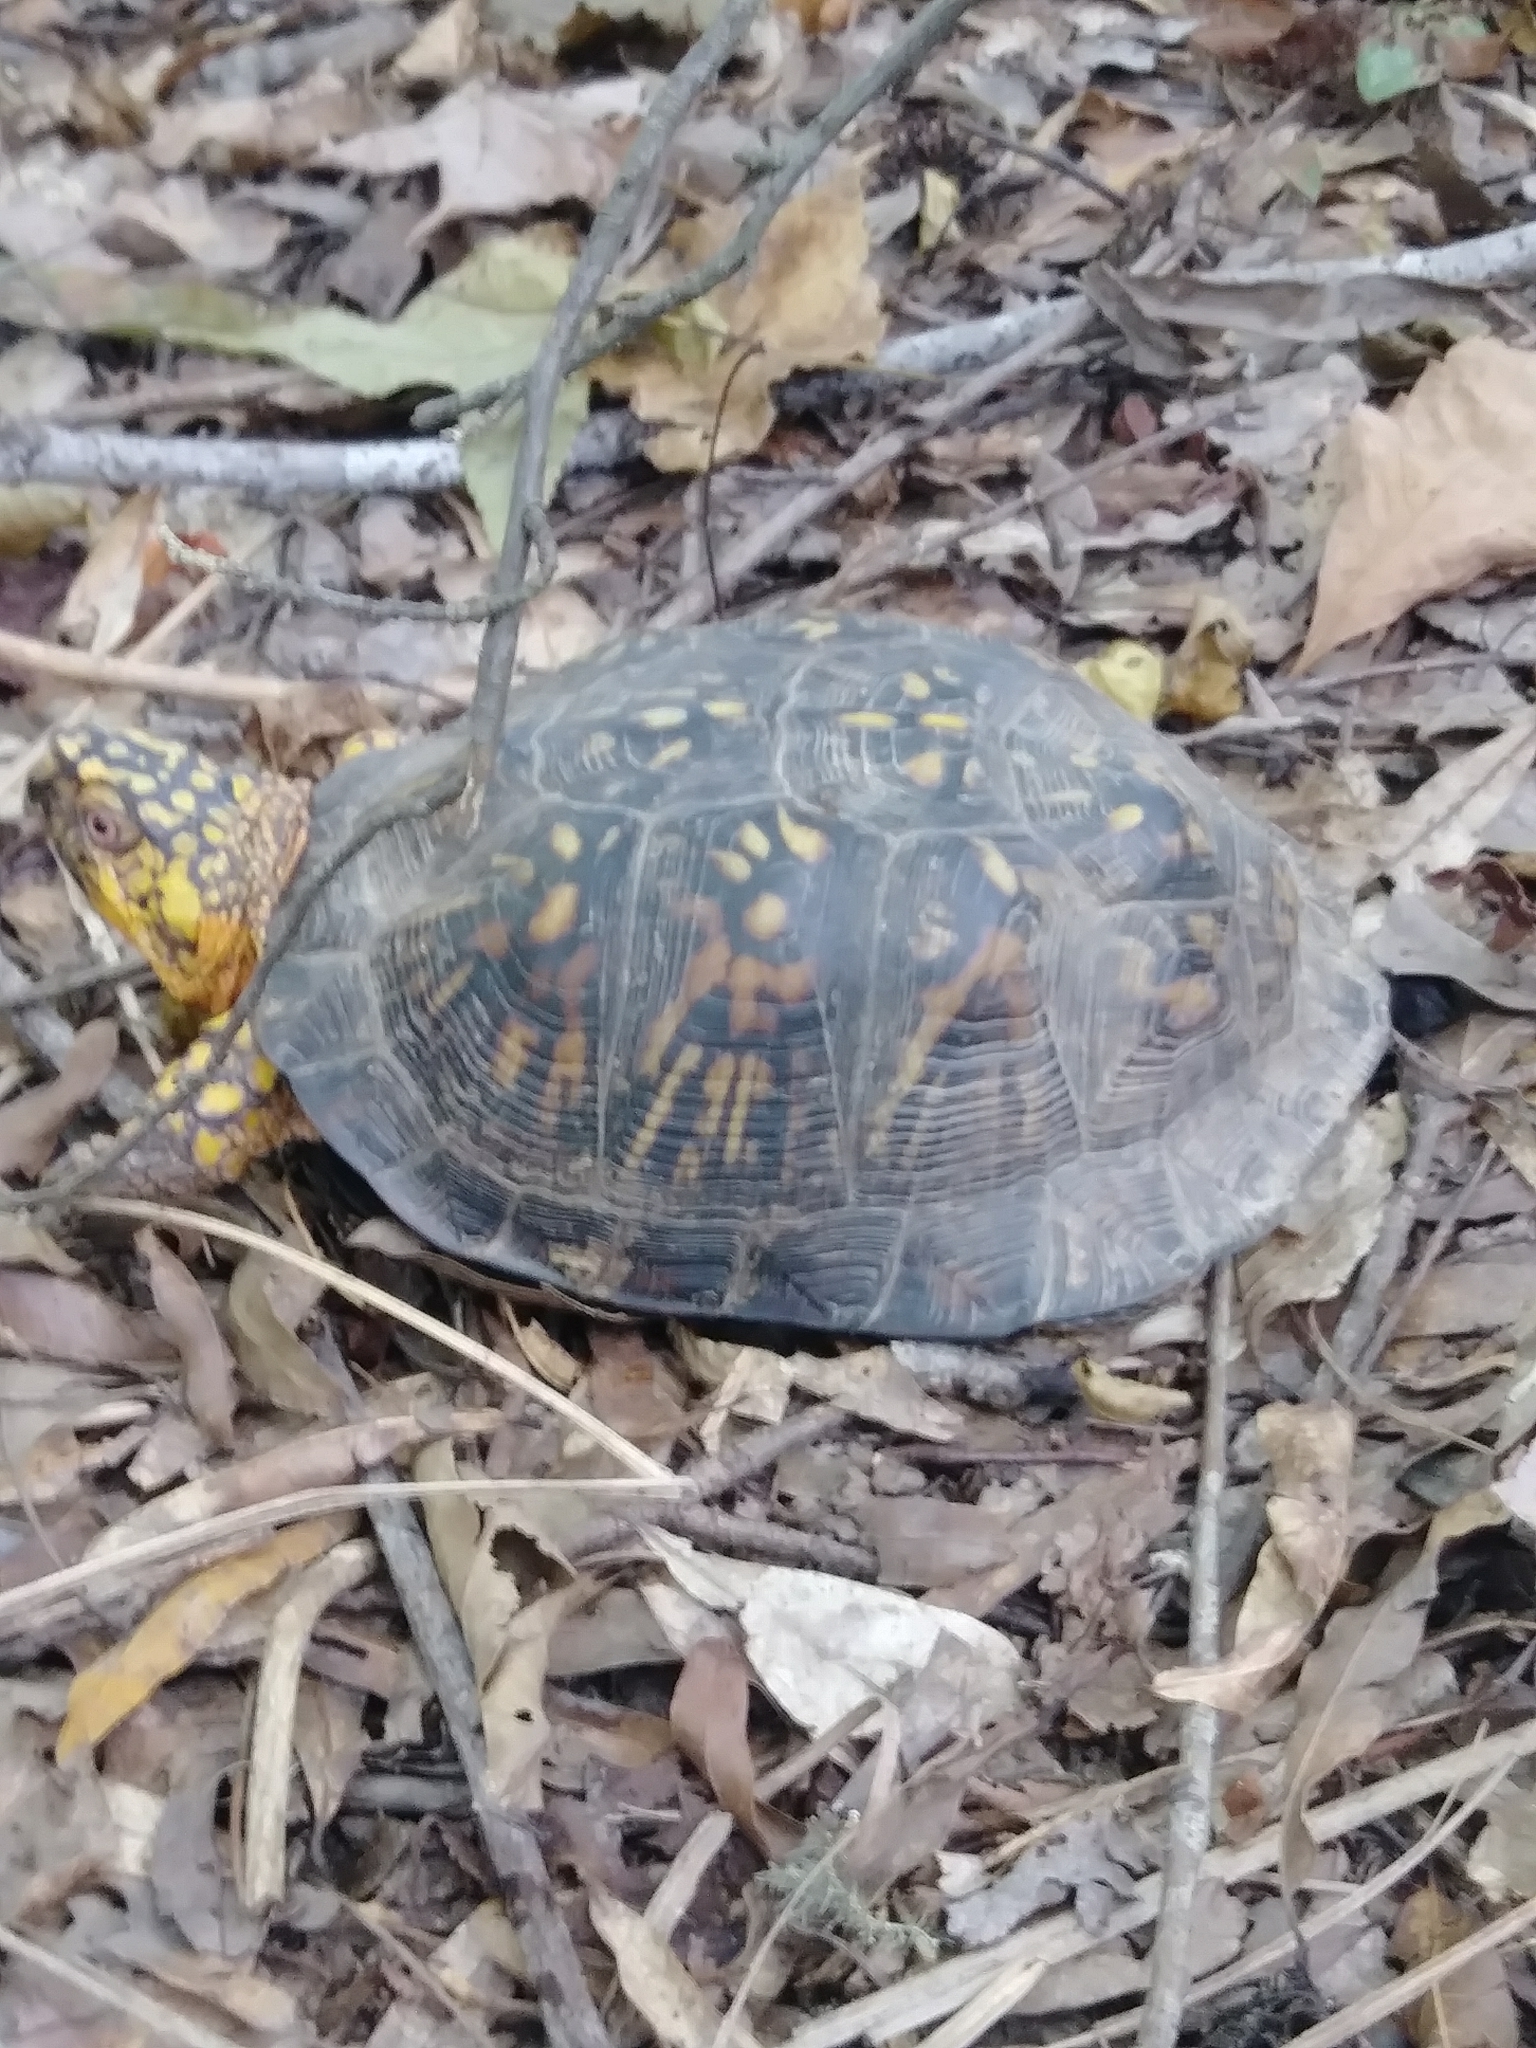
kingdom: Animalia
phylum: Chordata
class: Testudines
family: Emydidae
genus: Terrapene
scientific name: Terrapene carolina
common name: Common box turtle
